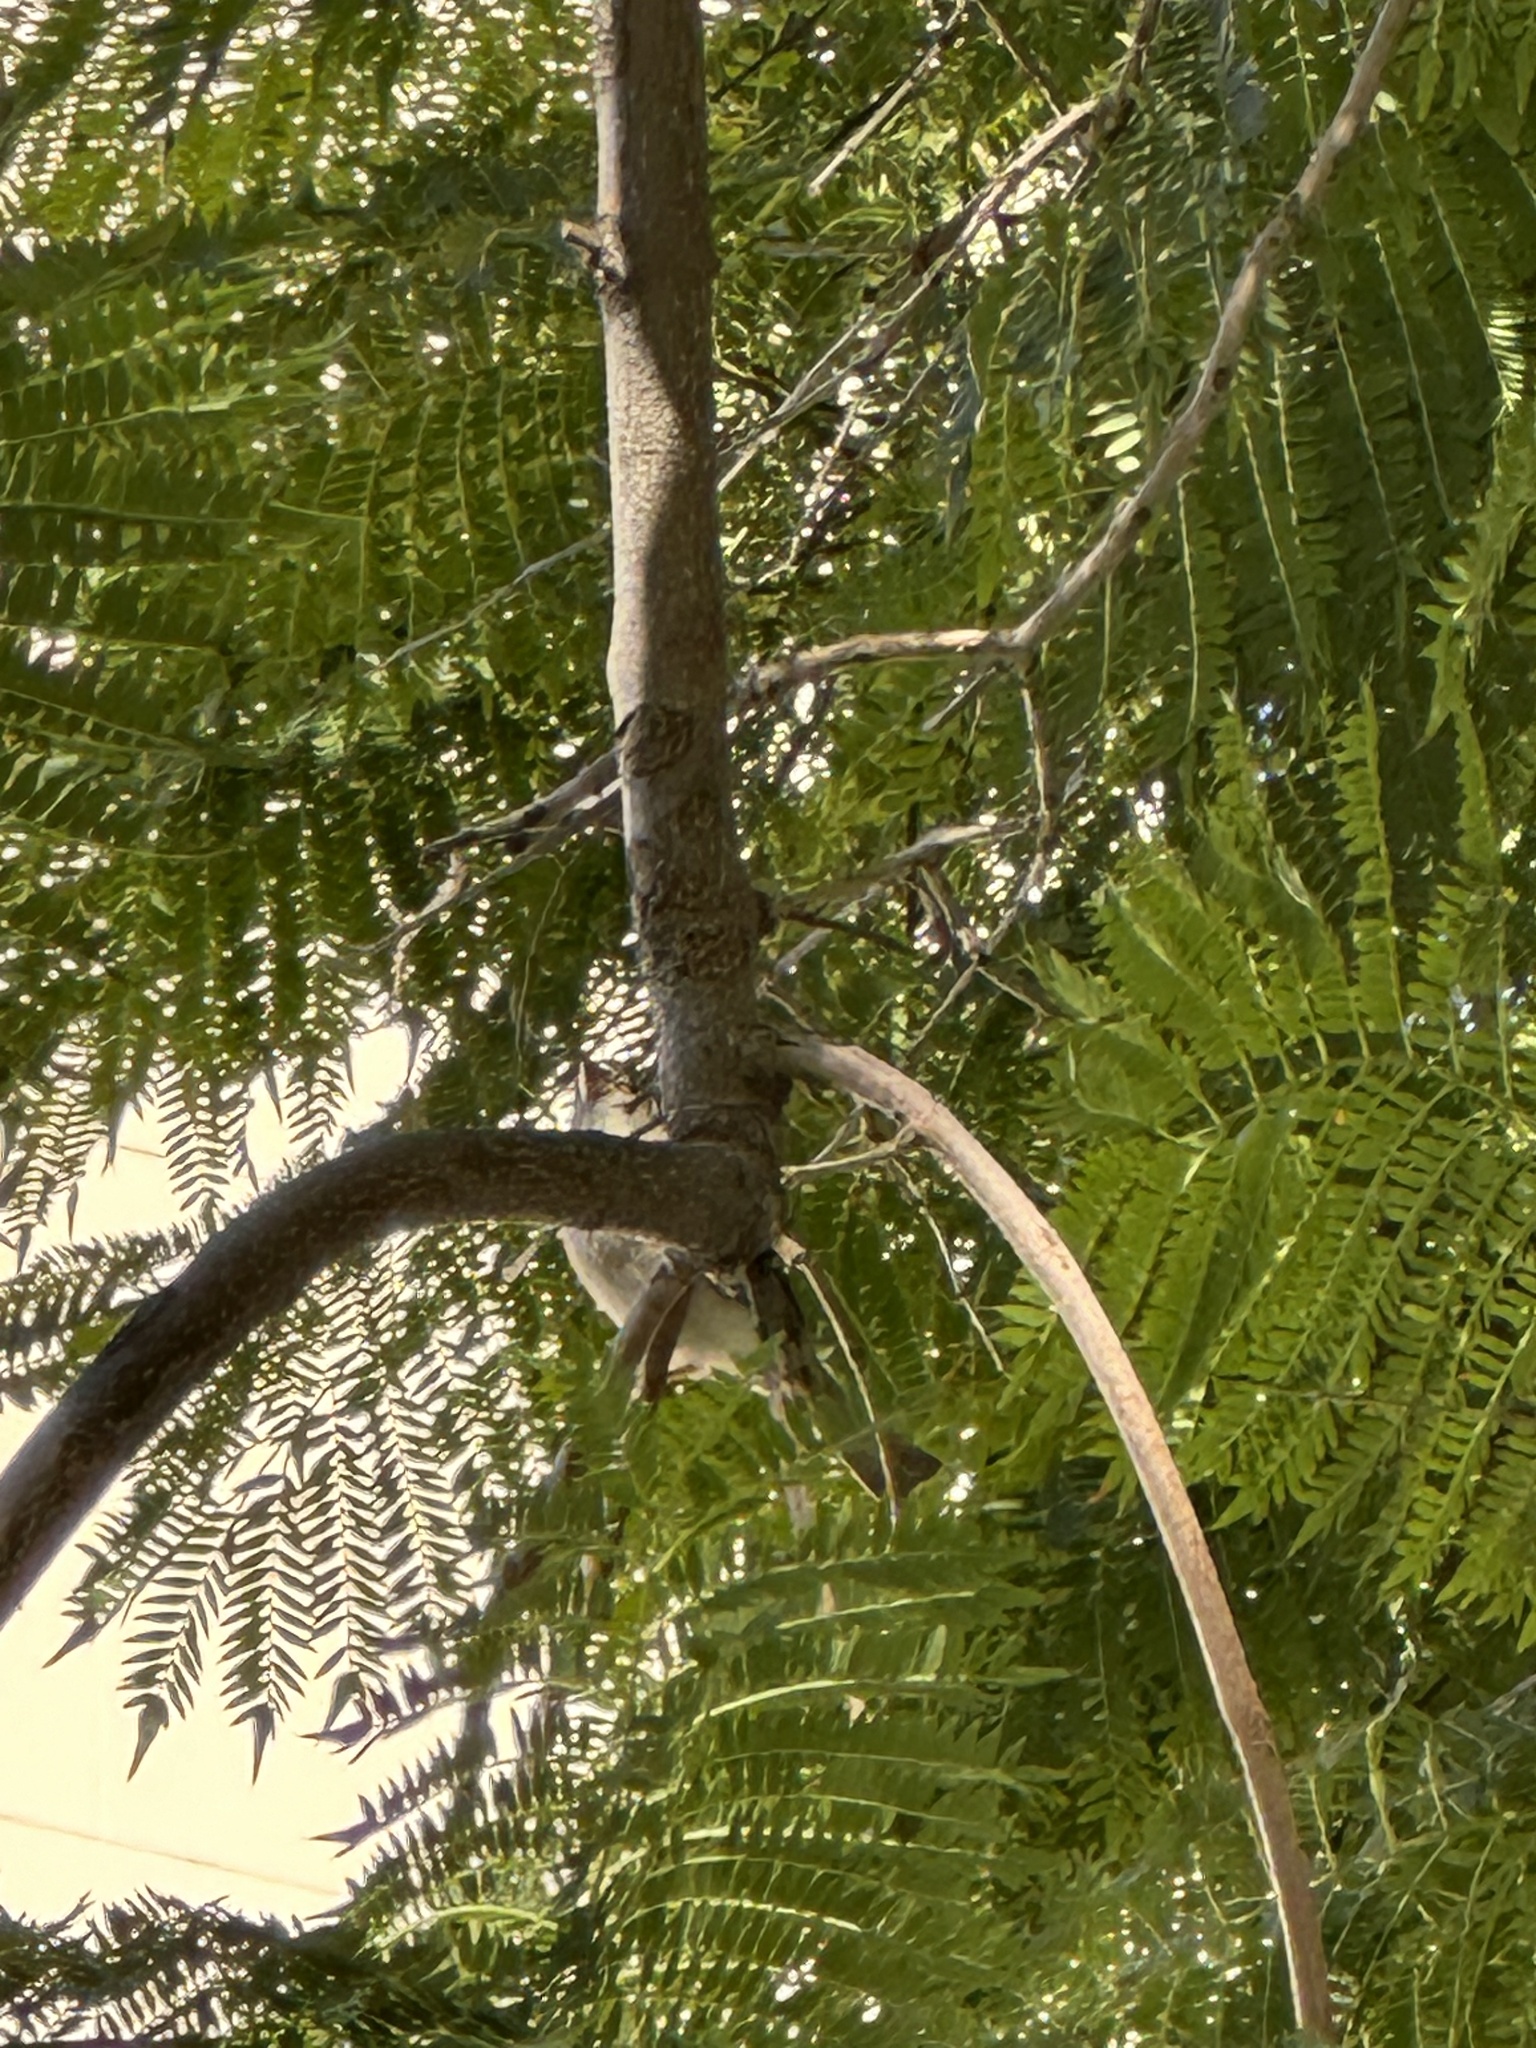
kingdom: Animalia
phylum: Chordata
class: Aves
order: Passeriformes
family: Passeridae
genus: Passer
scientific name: Passer domesticus
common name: House sparrow
